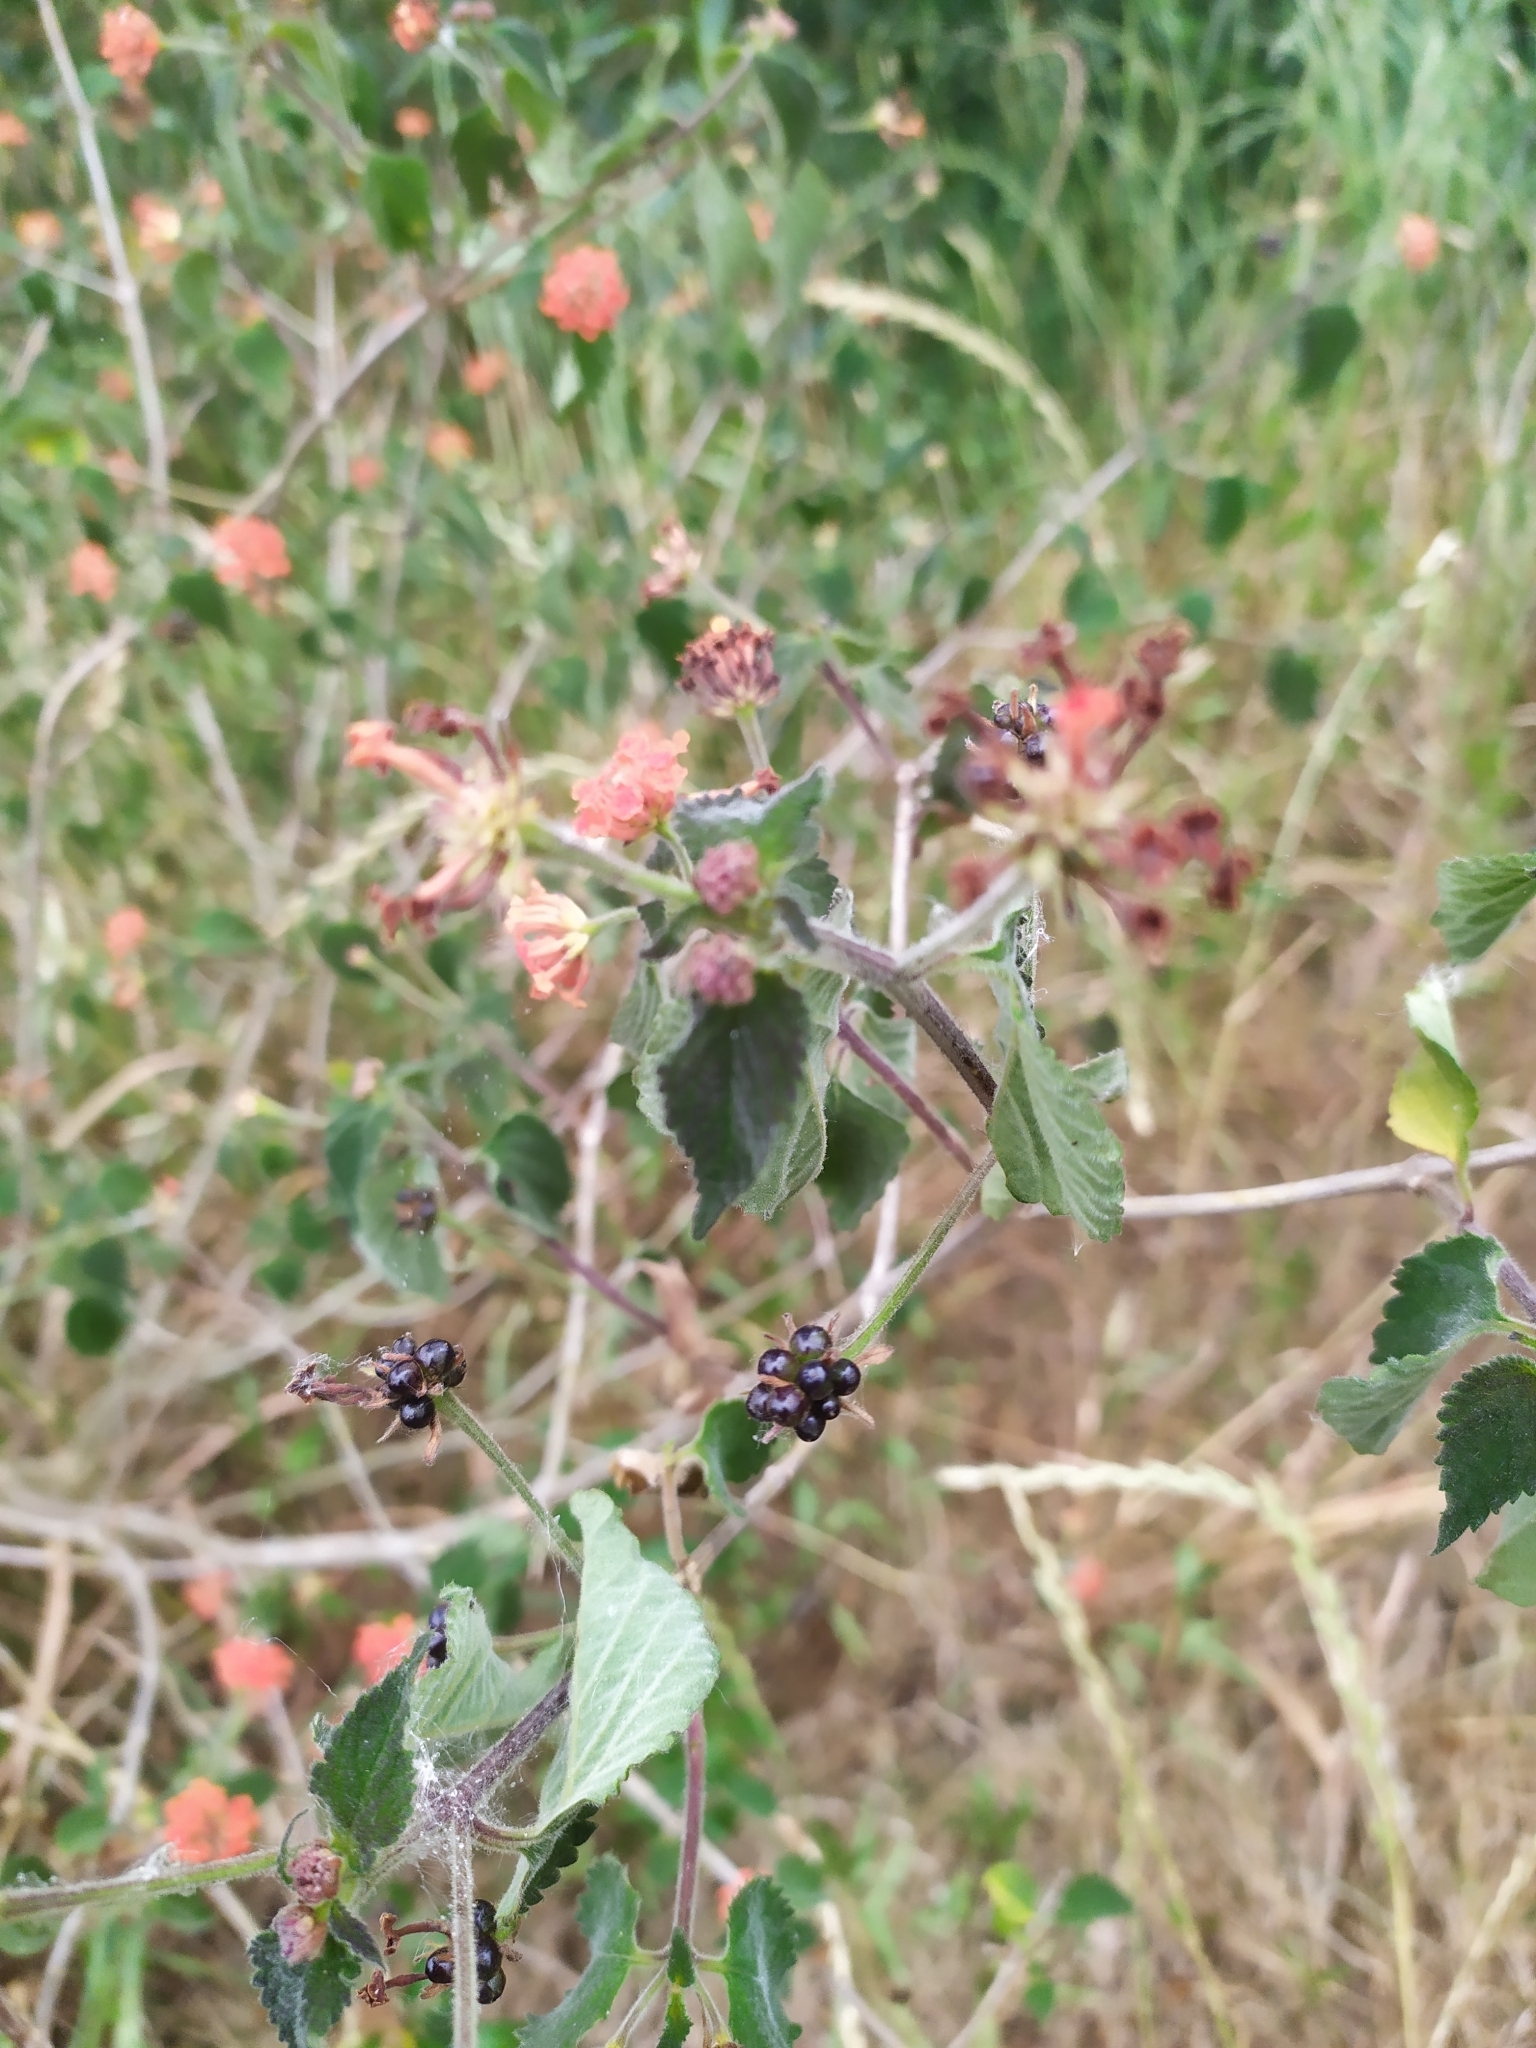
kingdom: Plantae
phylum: Tracheophyta
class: Magnoliopsida
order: Lamiales
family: Verbenaceae
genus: Lantana
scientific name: Lantana camara
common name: Lantana
